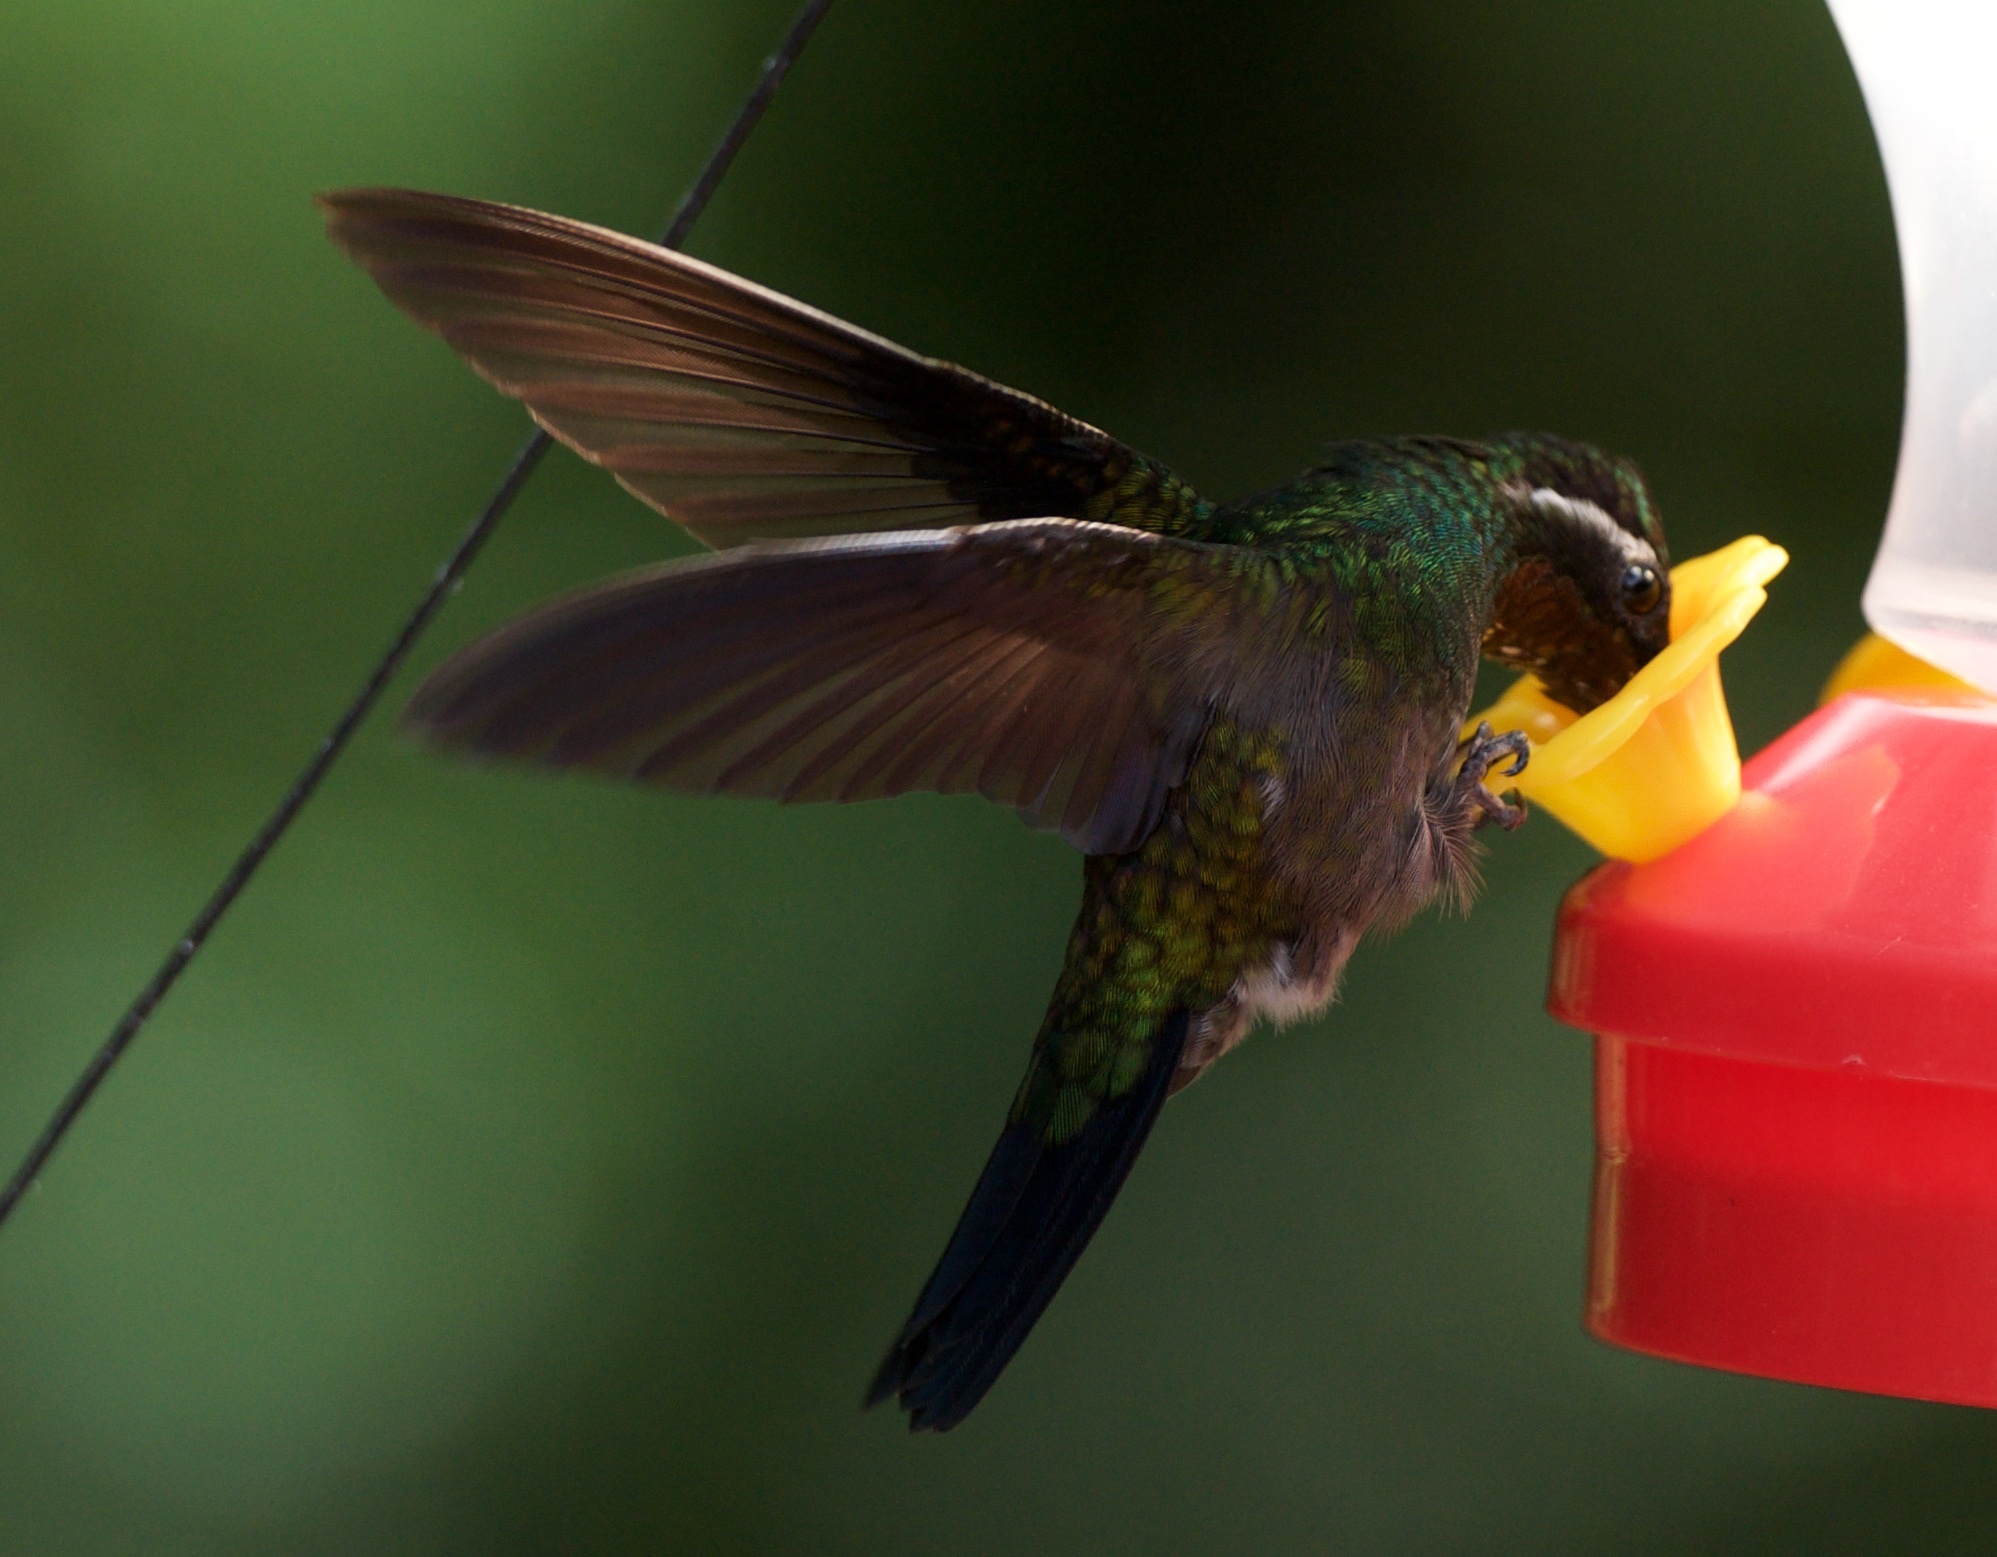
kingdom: Animalia
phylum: Chordata
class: Aves
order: Apodiformes
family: Trochilidae
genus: Lampornis
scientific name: Lampornis calolaemus
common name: Purple-throated mountain-gem
